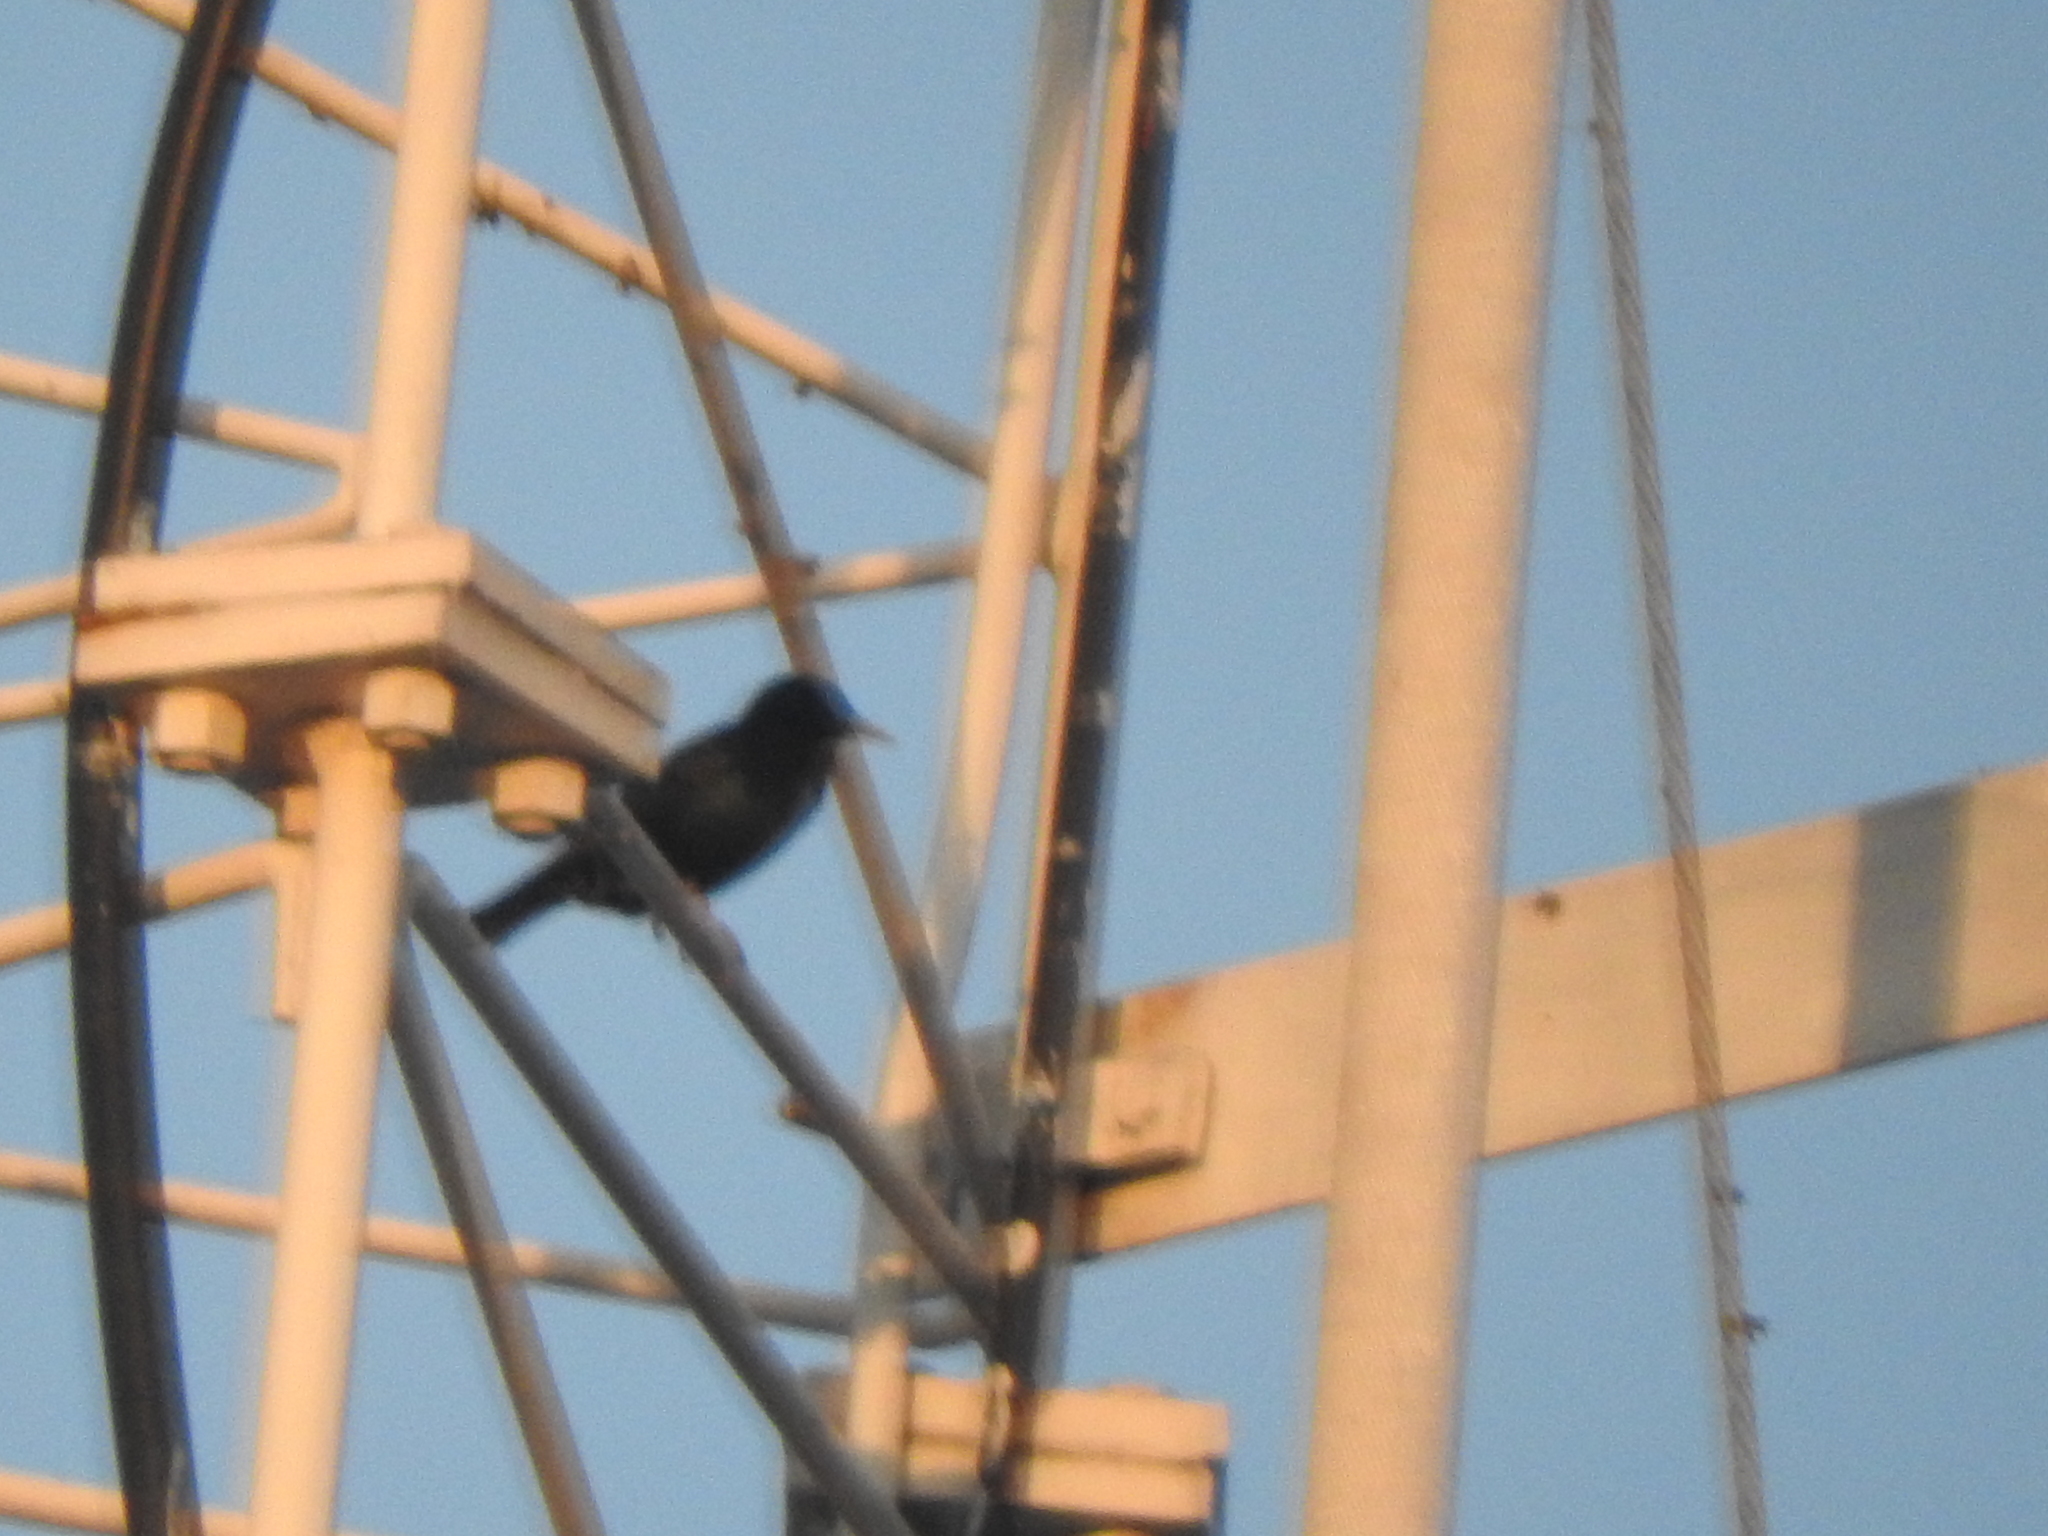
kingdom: Animalia
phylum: Chordata
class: Aves
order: Passeriformes
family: Sturnidae
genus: Sturnus
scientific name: Sturnus vulgaris
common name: Common starling
